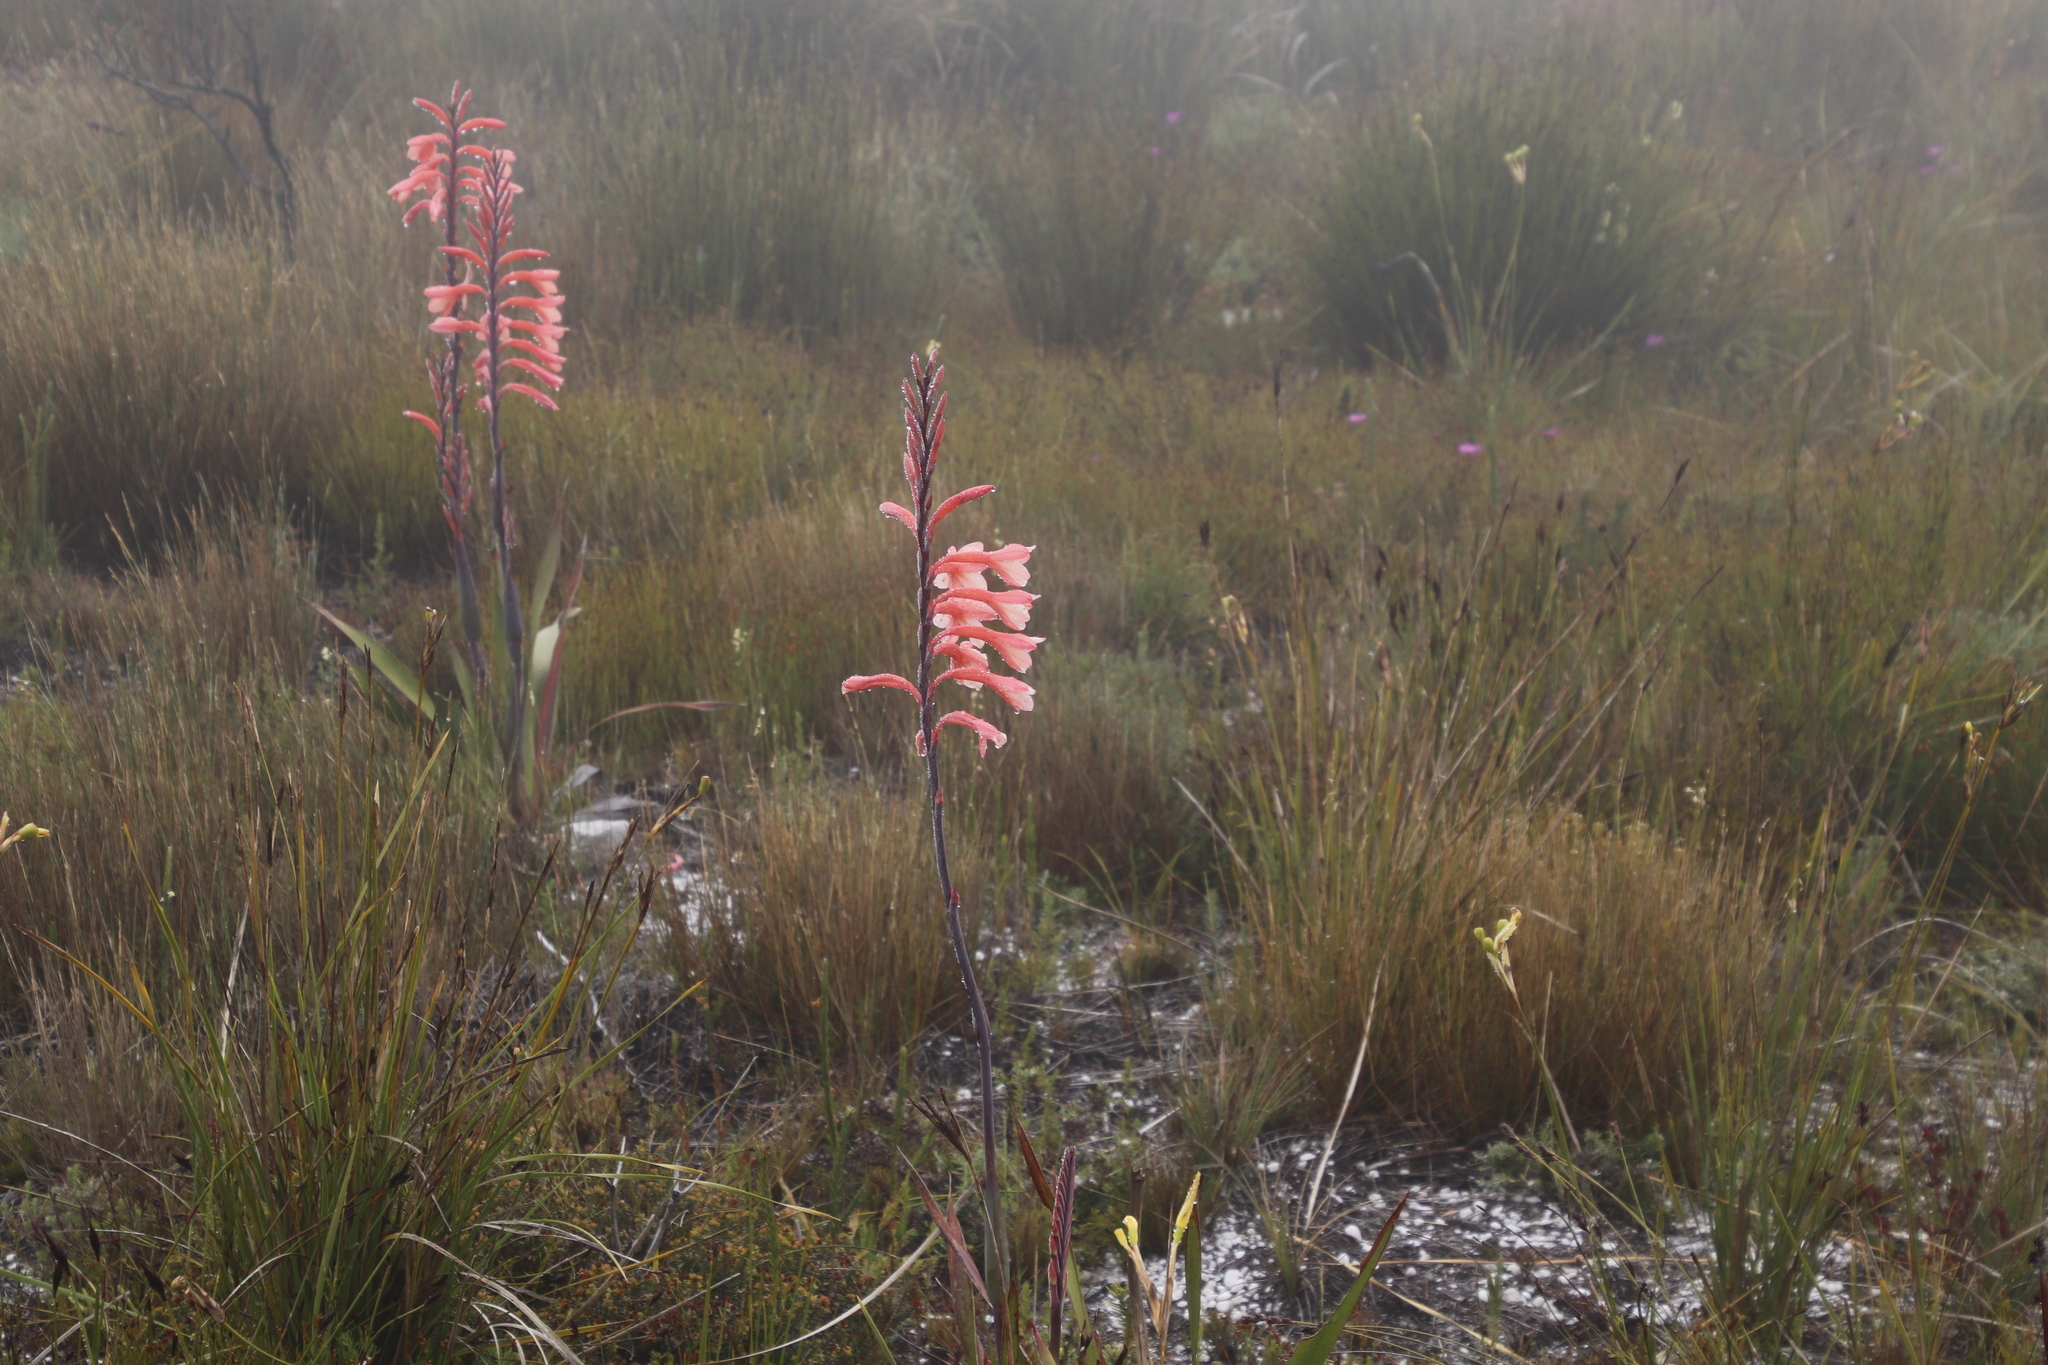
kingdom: Plantae
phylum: Tracheophyta
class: Liliopsida
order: Asparagales
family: Iridaceae
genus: Watsonia
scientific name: Watsonia tabularis
